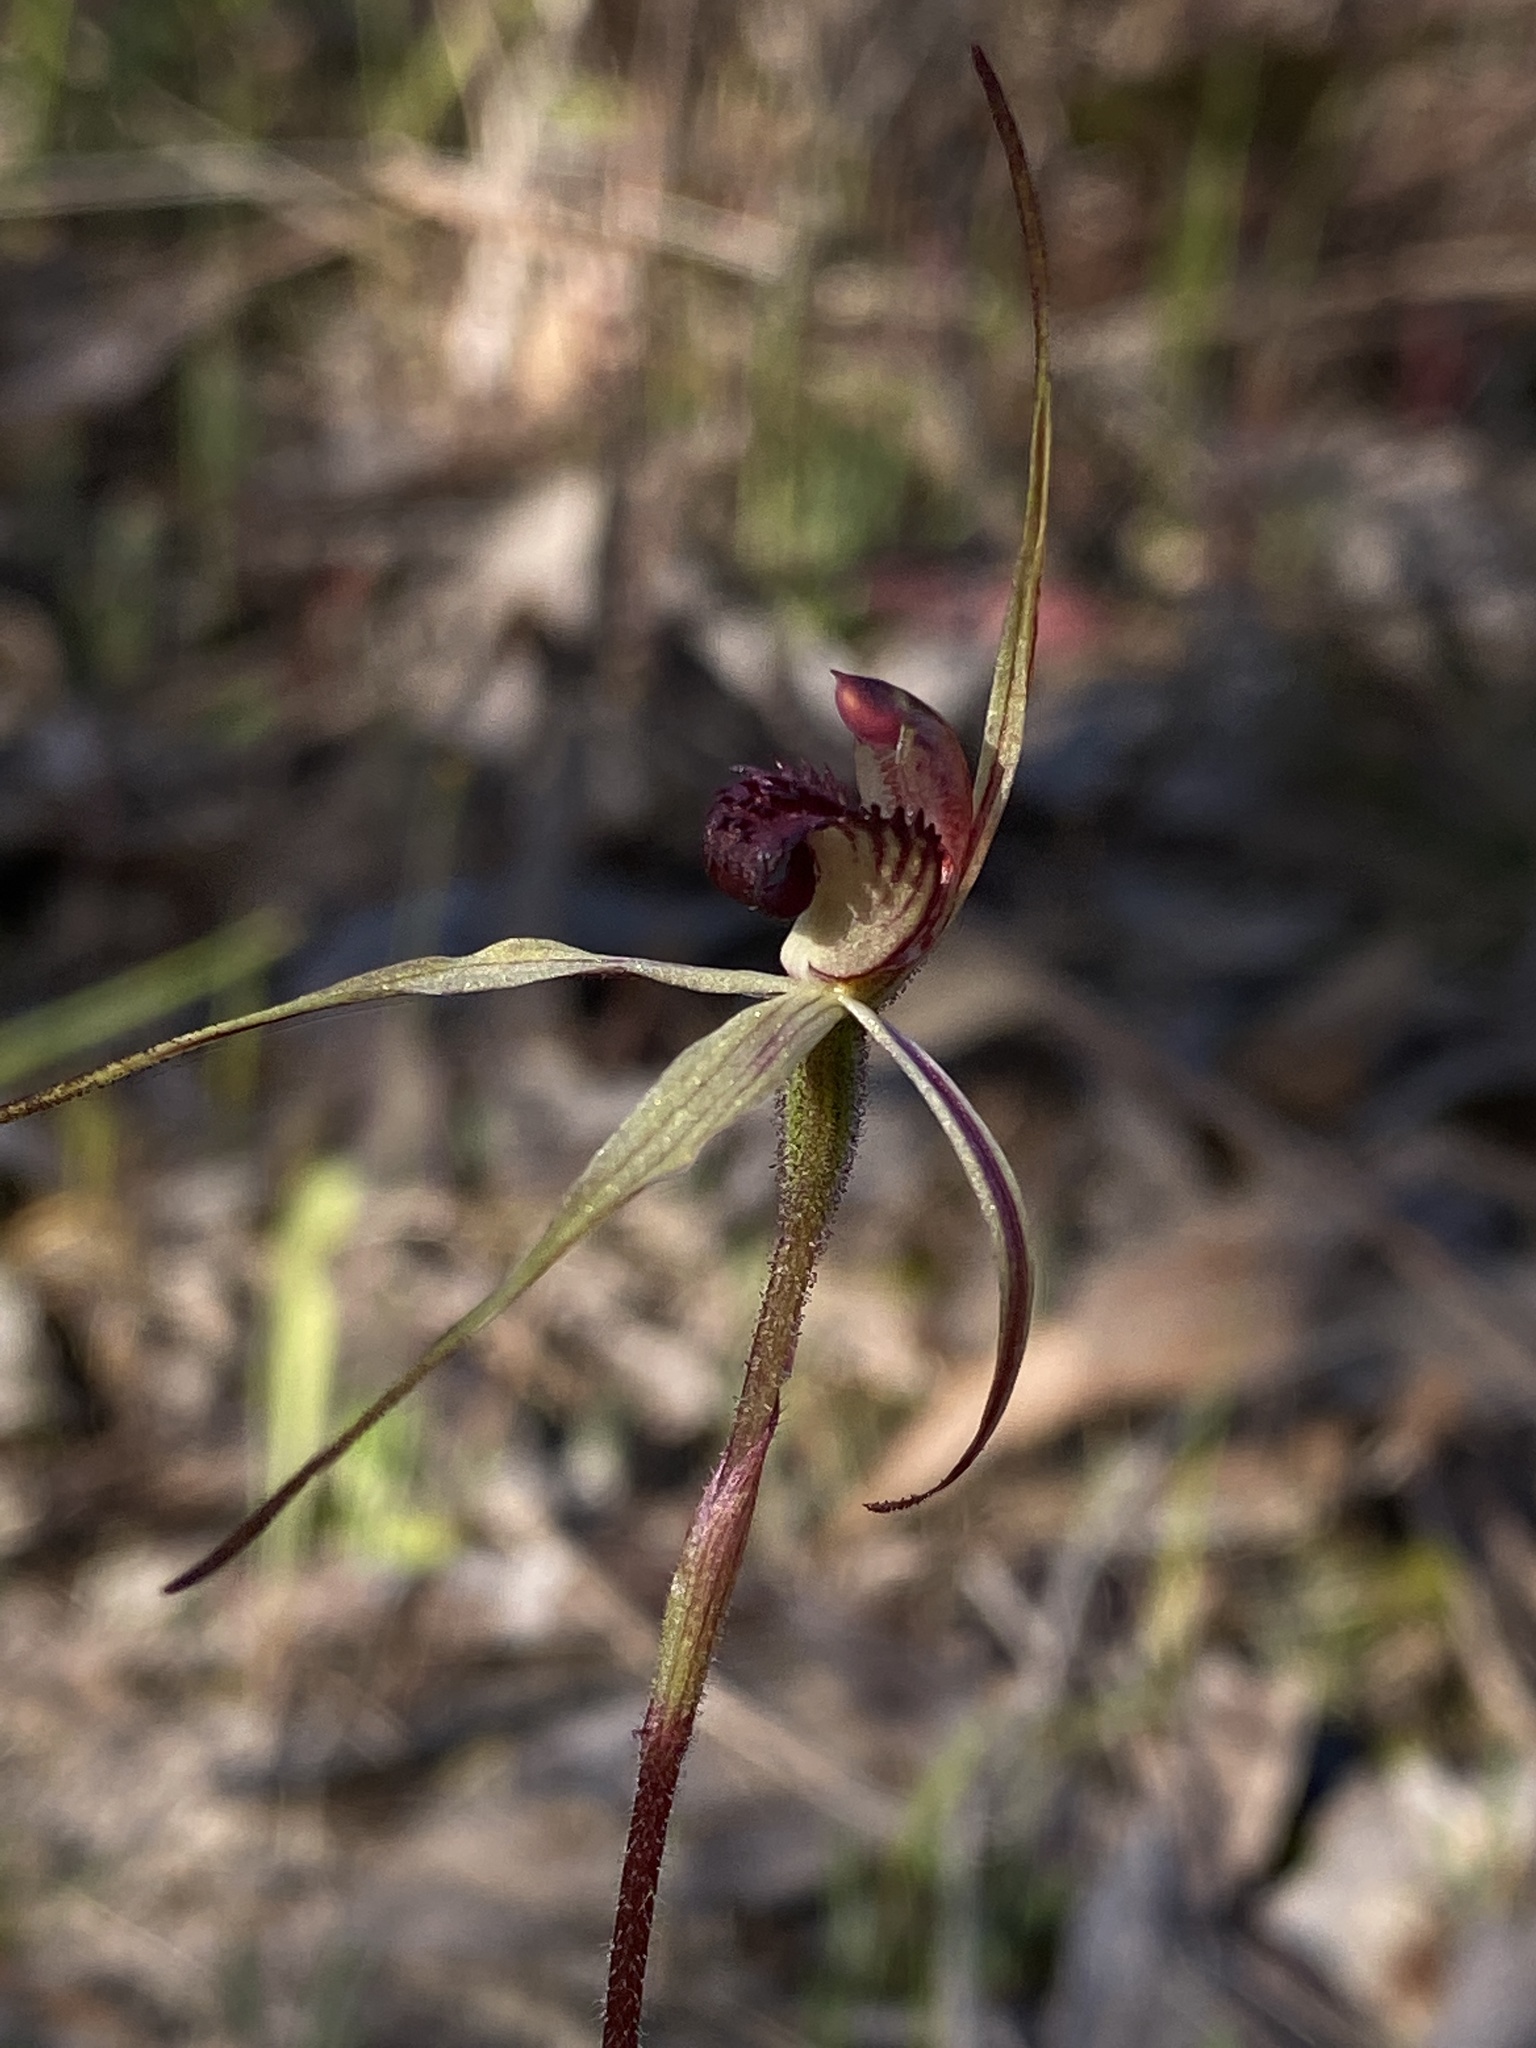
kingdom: Plantae
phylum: Tracheophyta
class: Liliopsida
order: Asparagales
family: Orchidaceae
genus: Caladenia
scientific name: Caladenia ampla
